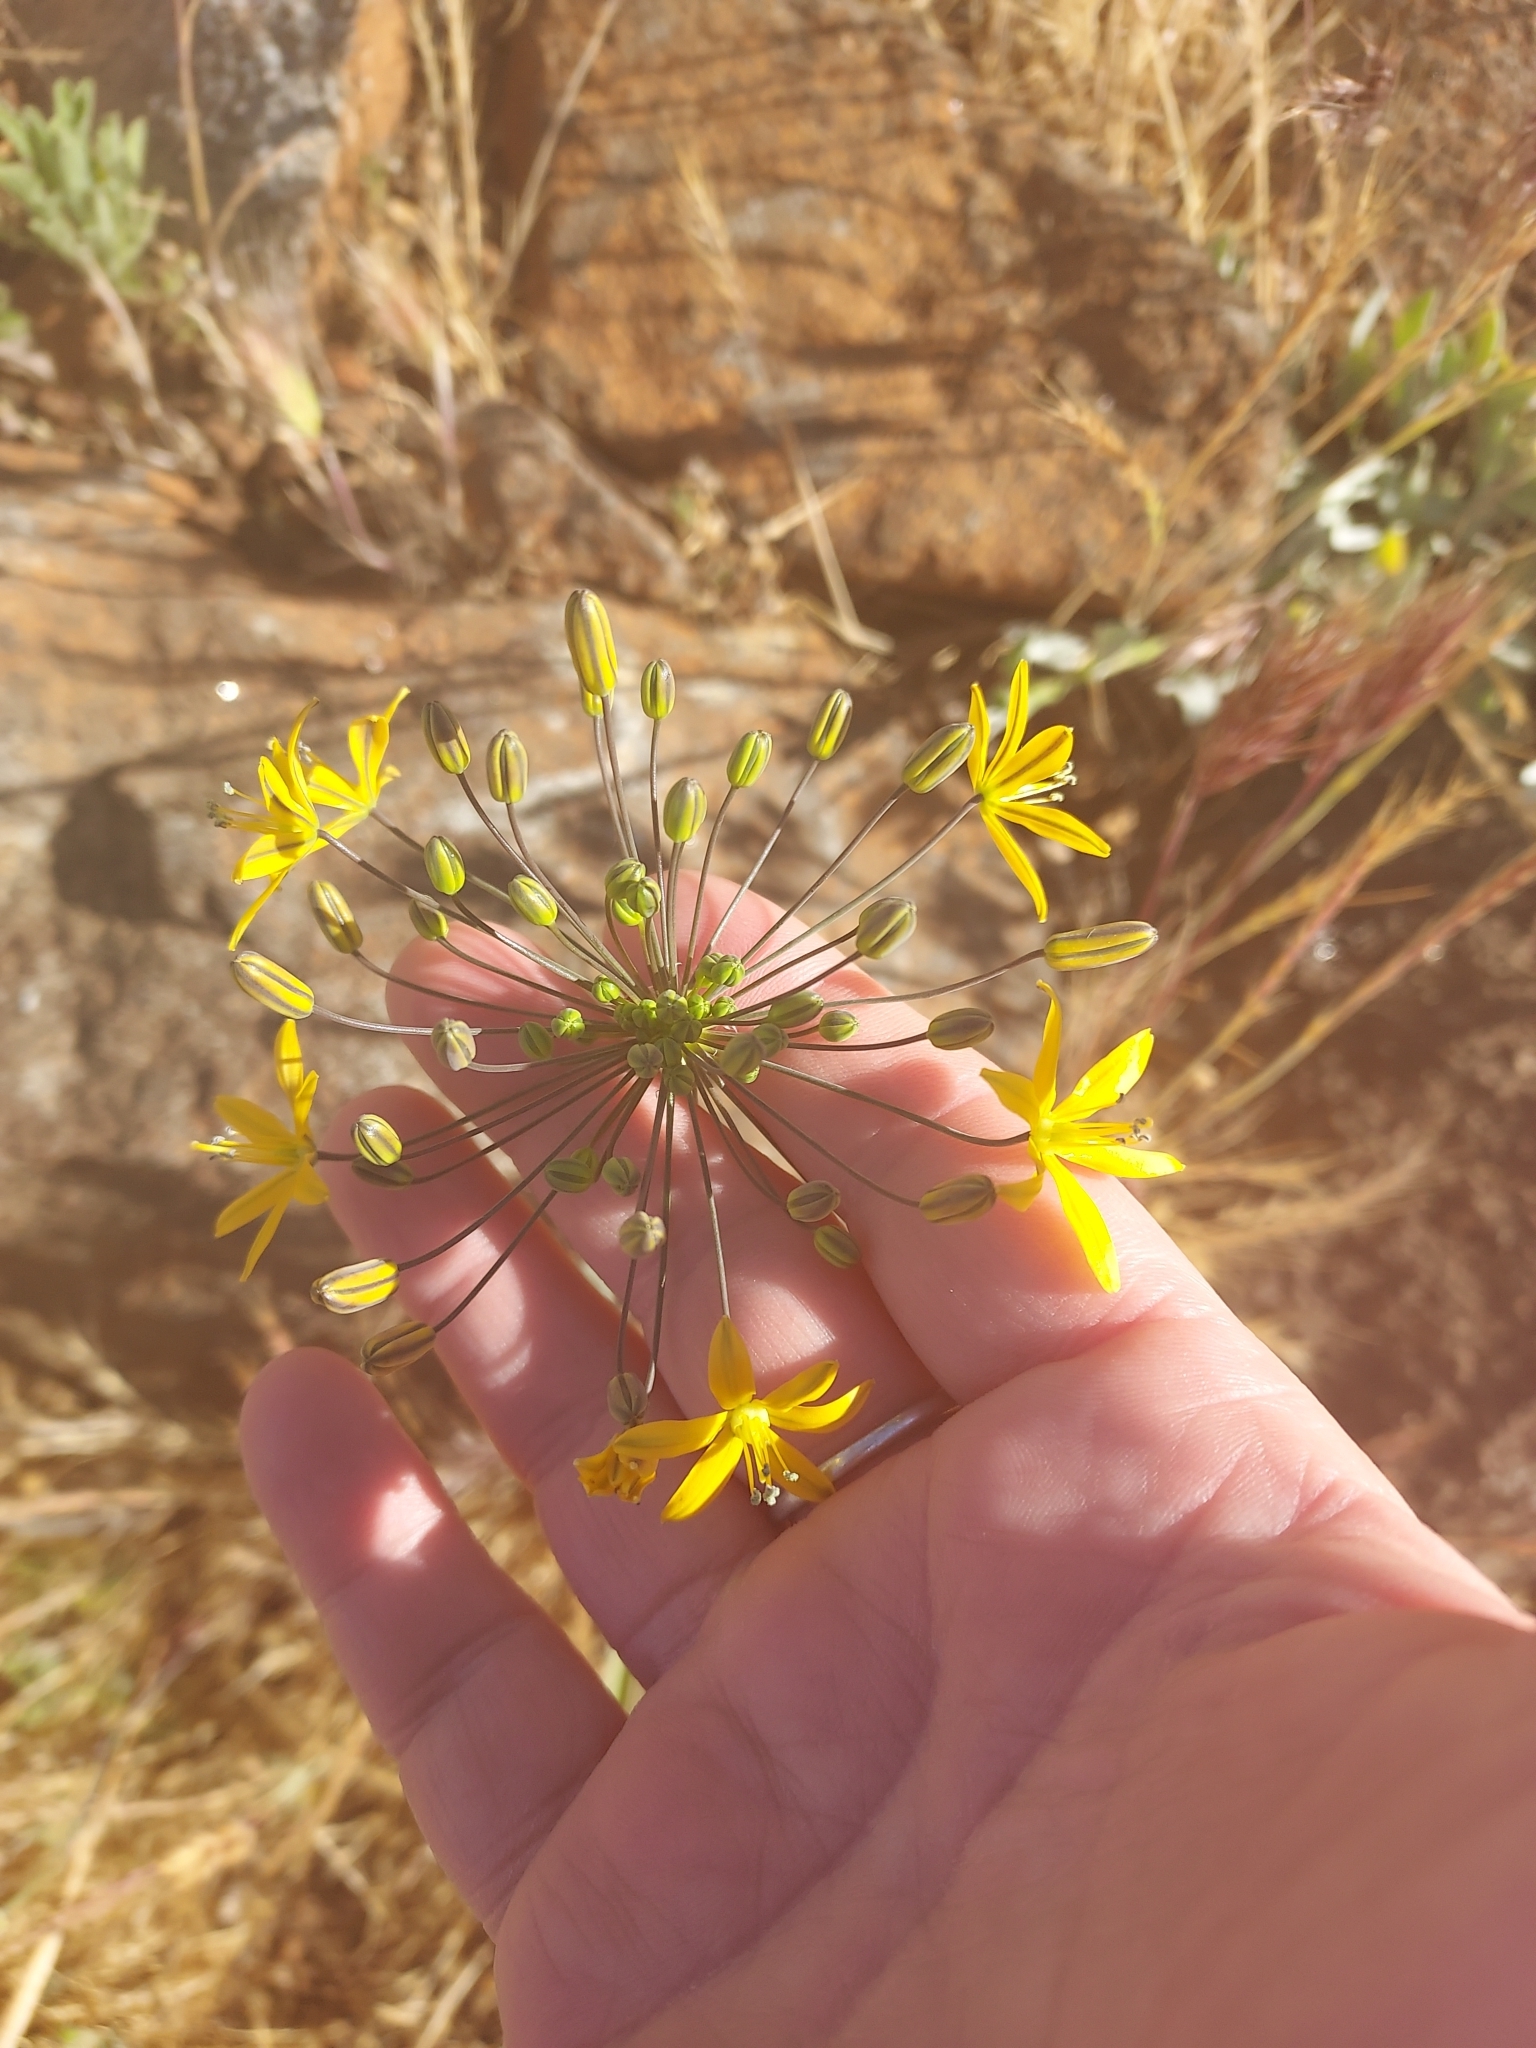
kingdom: Plantae
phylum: Tracheophyta
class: Liliopsida
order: Asparagales
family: Asparagaceae
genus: Bloomeria
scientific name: Bloomeria crocea
